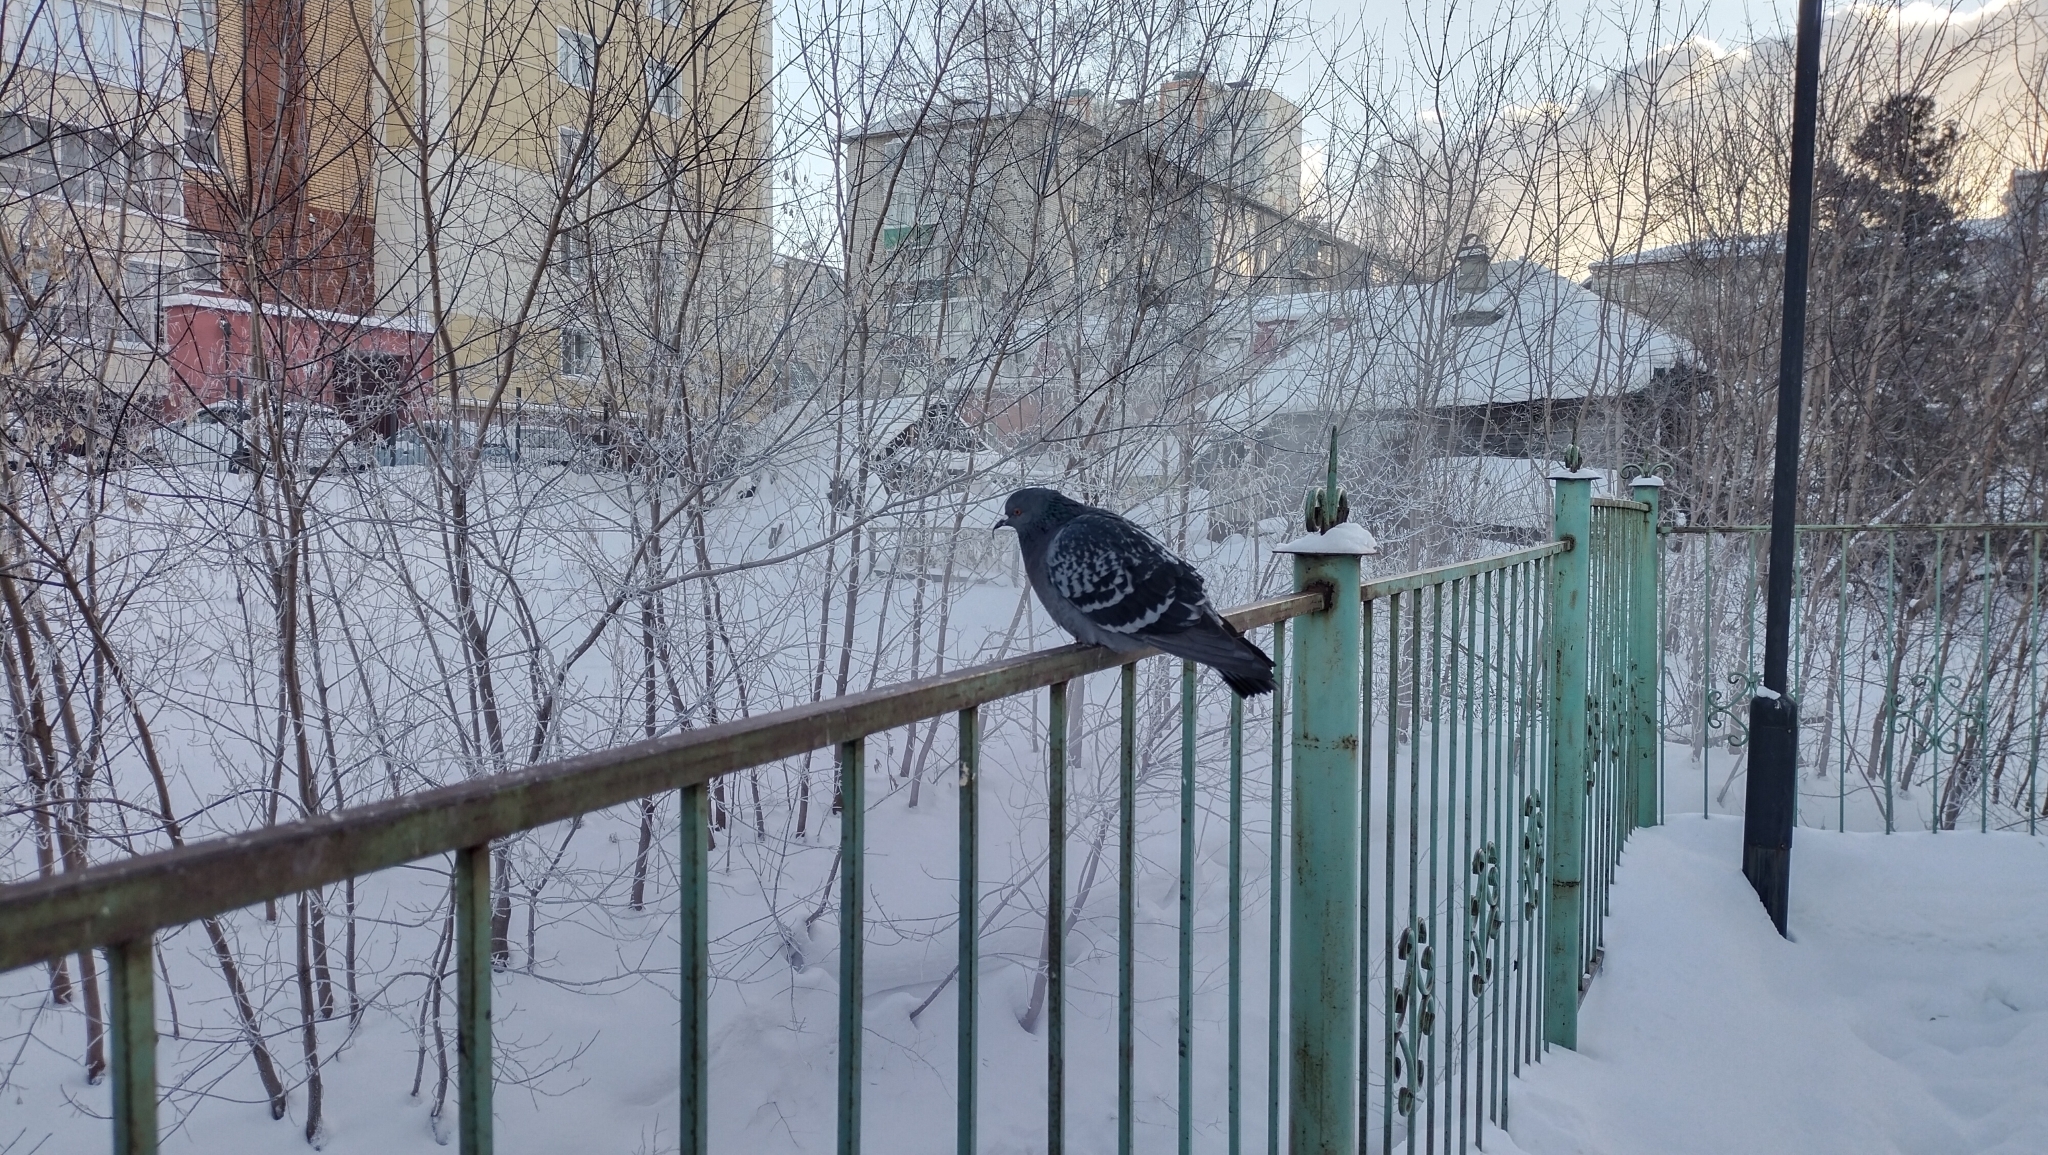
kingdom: Animalia
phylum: Chordata
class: Aves
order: Columbiformes
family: Columbidae
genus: Columba
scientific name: Columba livia
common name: Rock pigeon
